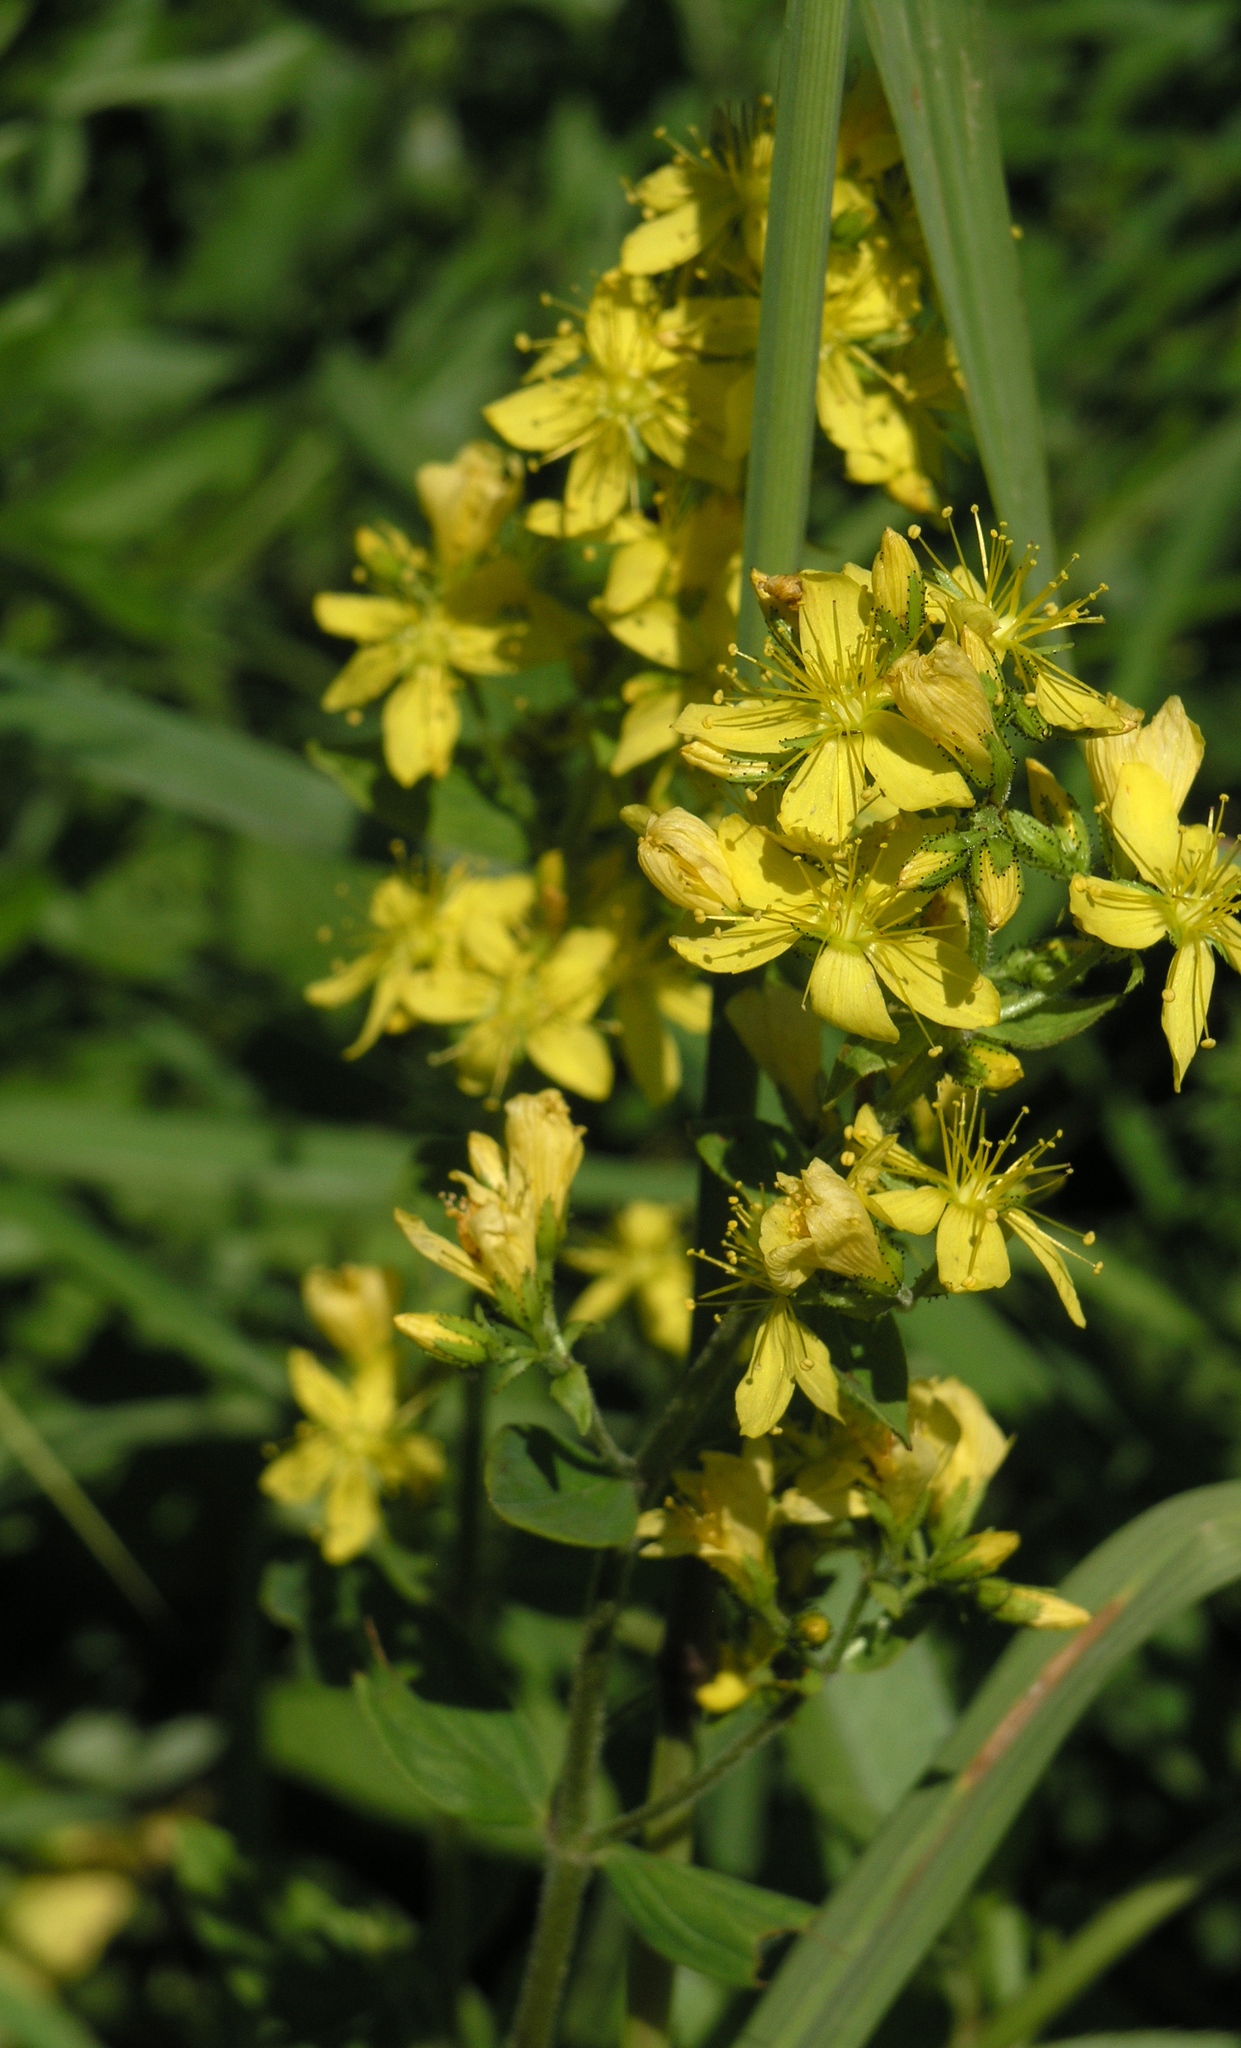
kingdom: Plantae
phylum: Tracheophyta
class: Magnoliopsida
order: Malpighiales
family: Hypericaceae
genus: Hypericum
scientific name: Hypericum hirsutum
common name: Hairy st. john's-wort
